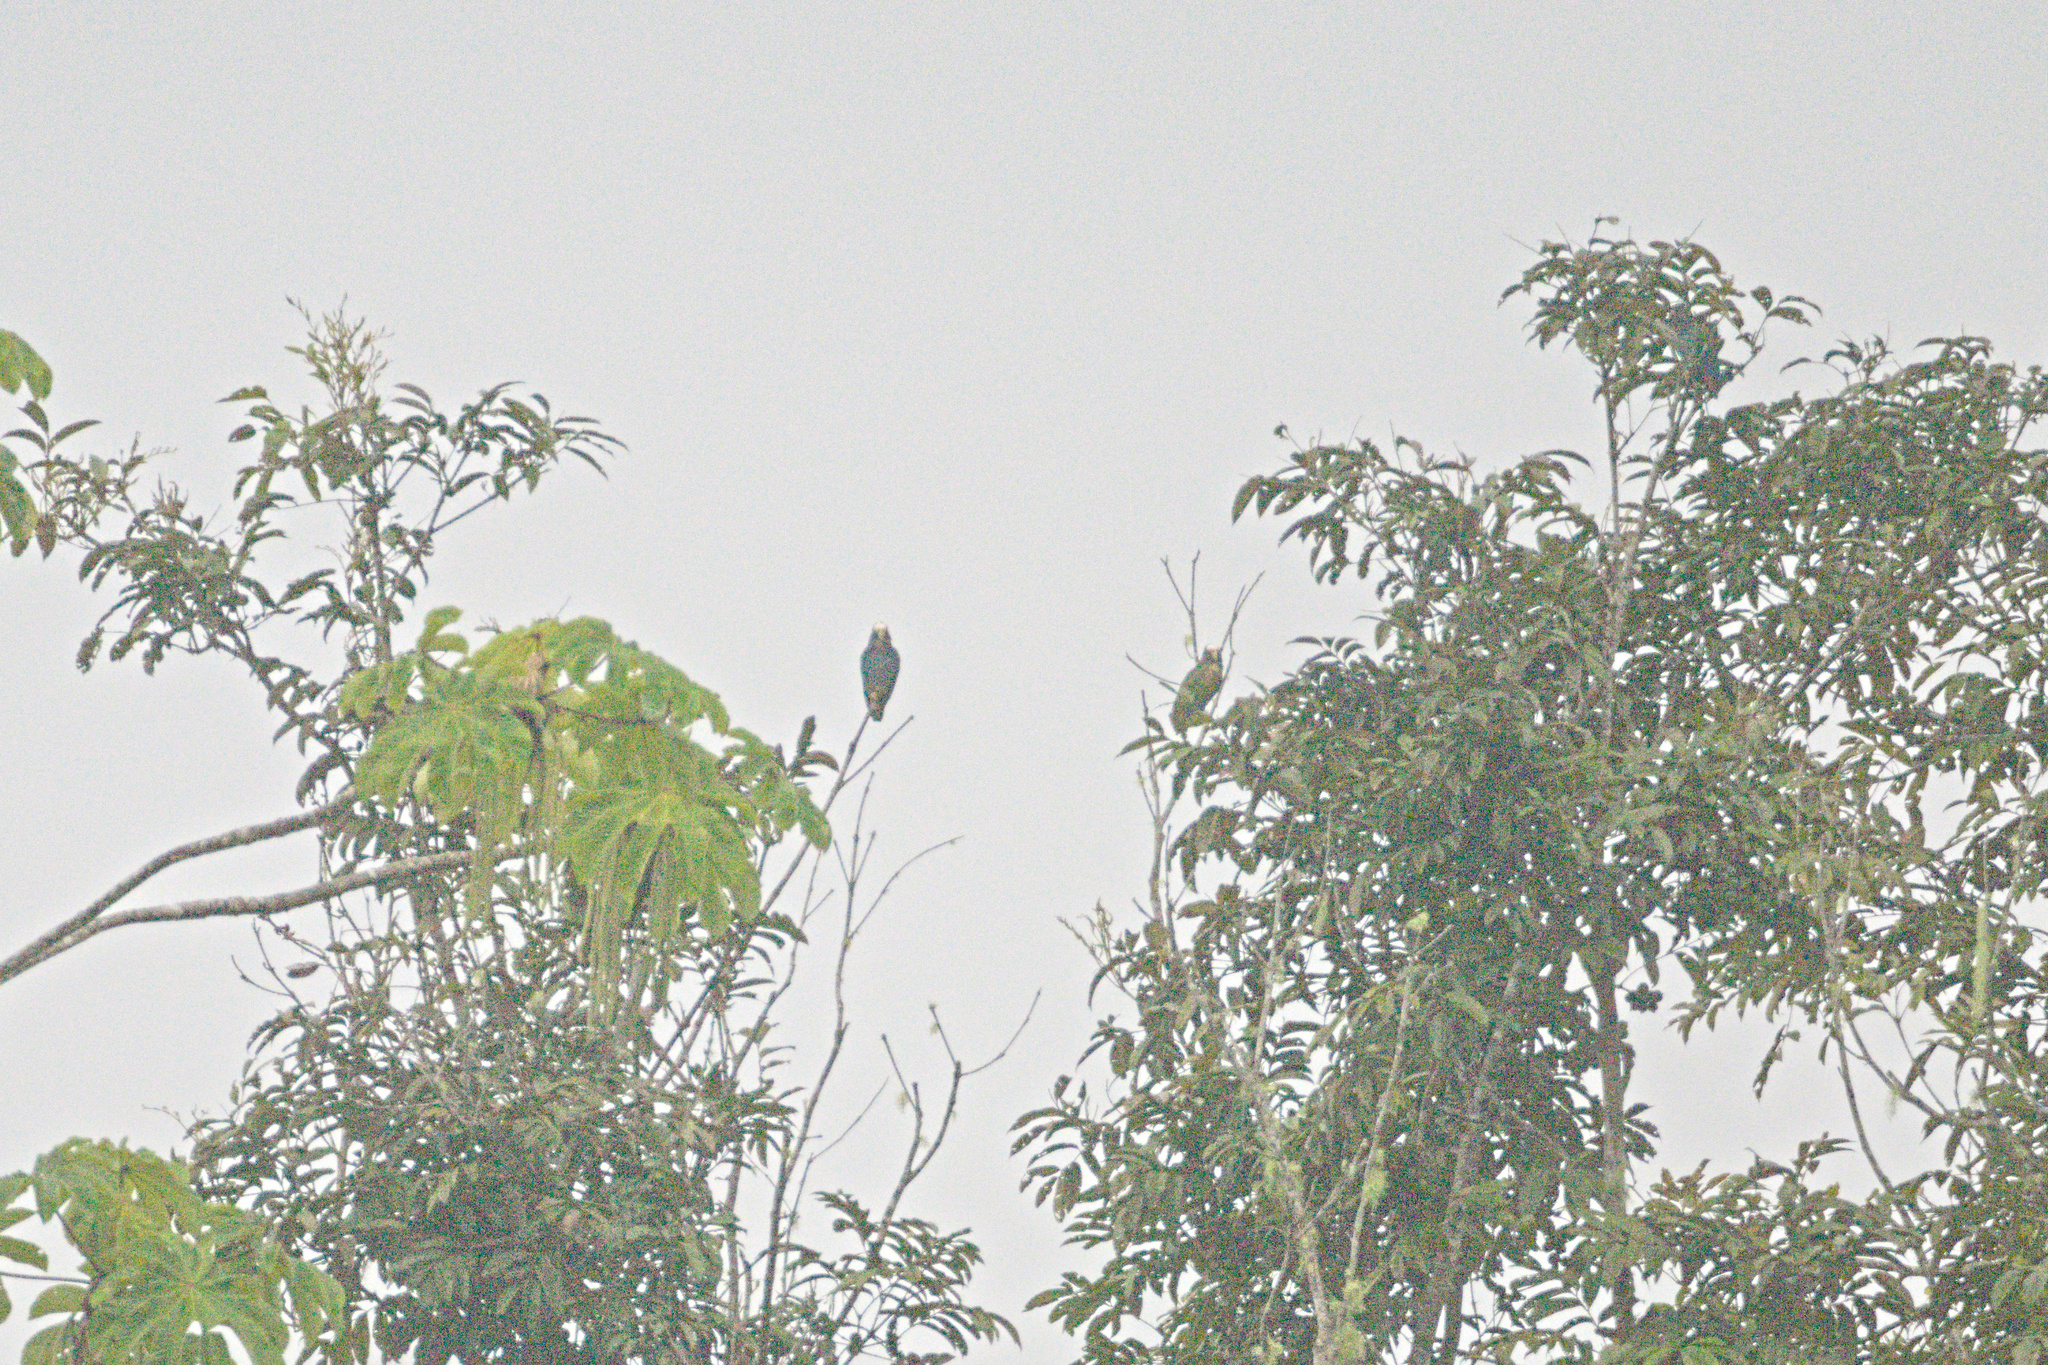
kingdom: Animalia
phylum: Chordata
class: Aves
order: Psittaciformes
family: Psittacidae
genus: Pionus
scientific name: Pionus senilis
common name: White-crowned parrot
